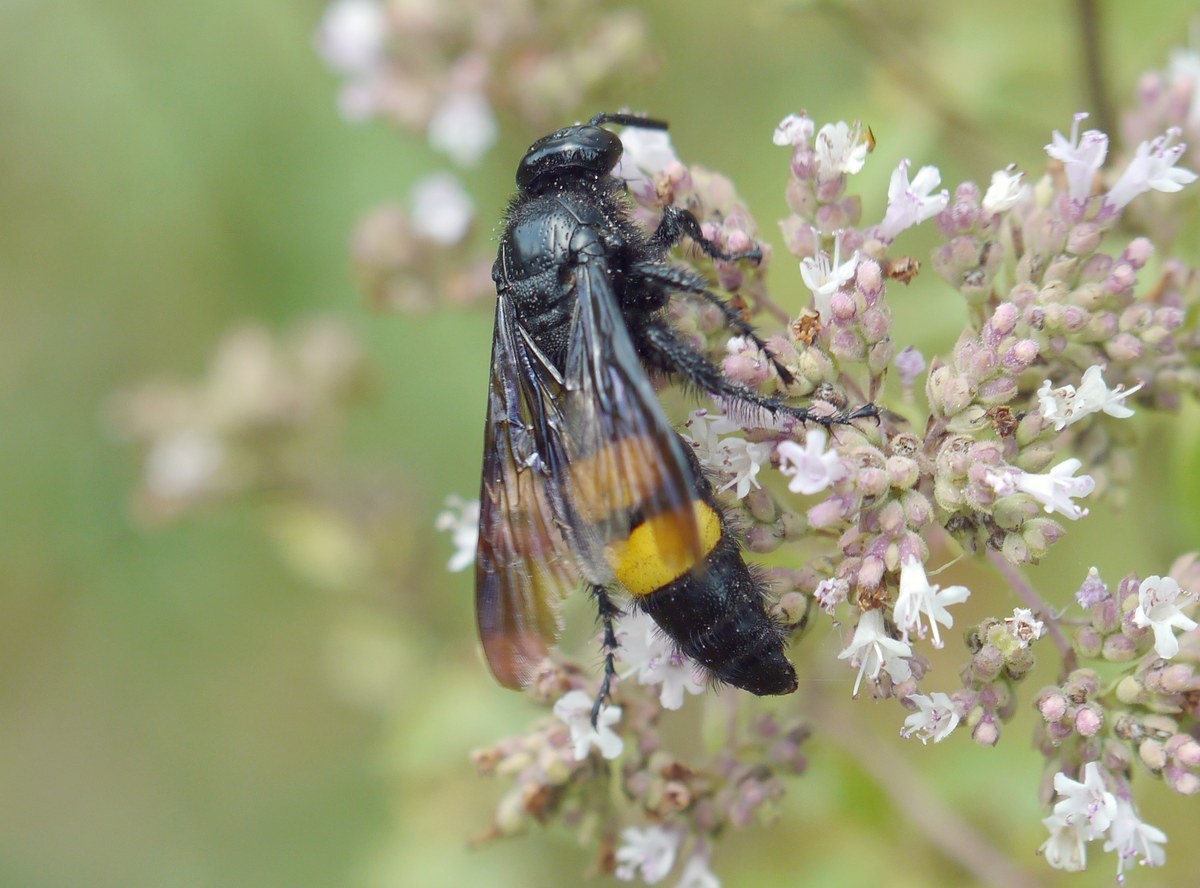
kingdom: Animalia
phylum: Arthropoda
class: Insecta
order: Hymenoptera
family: Scoliidae
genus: Scolia
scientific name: Scolia hirta
